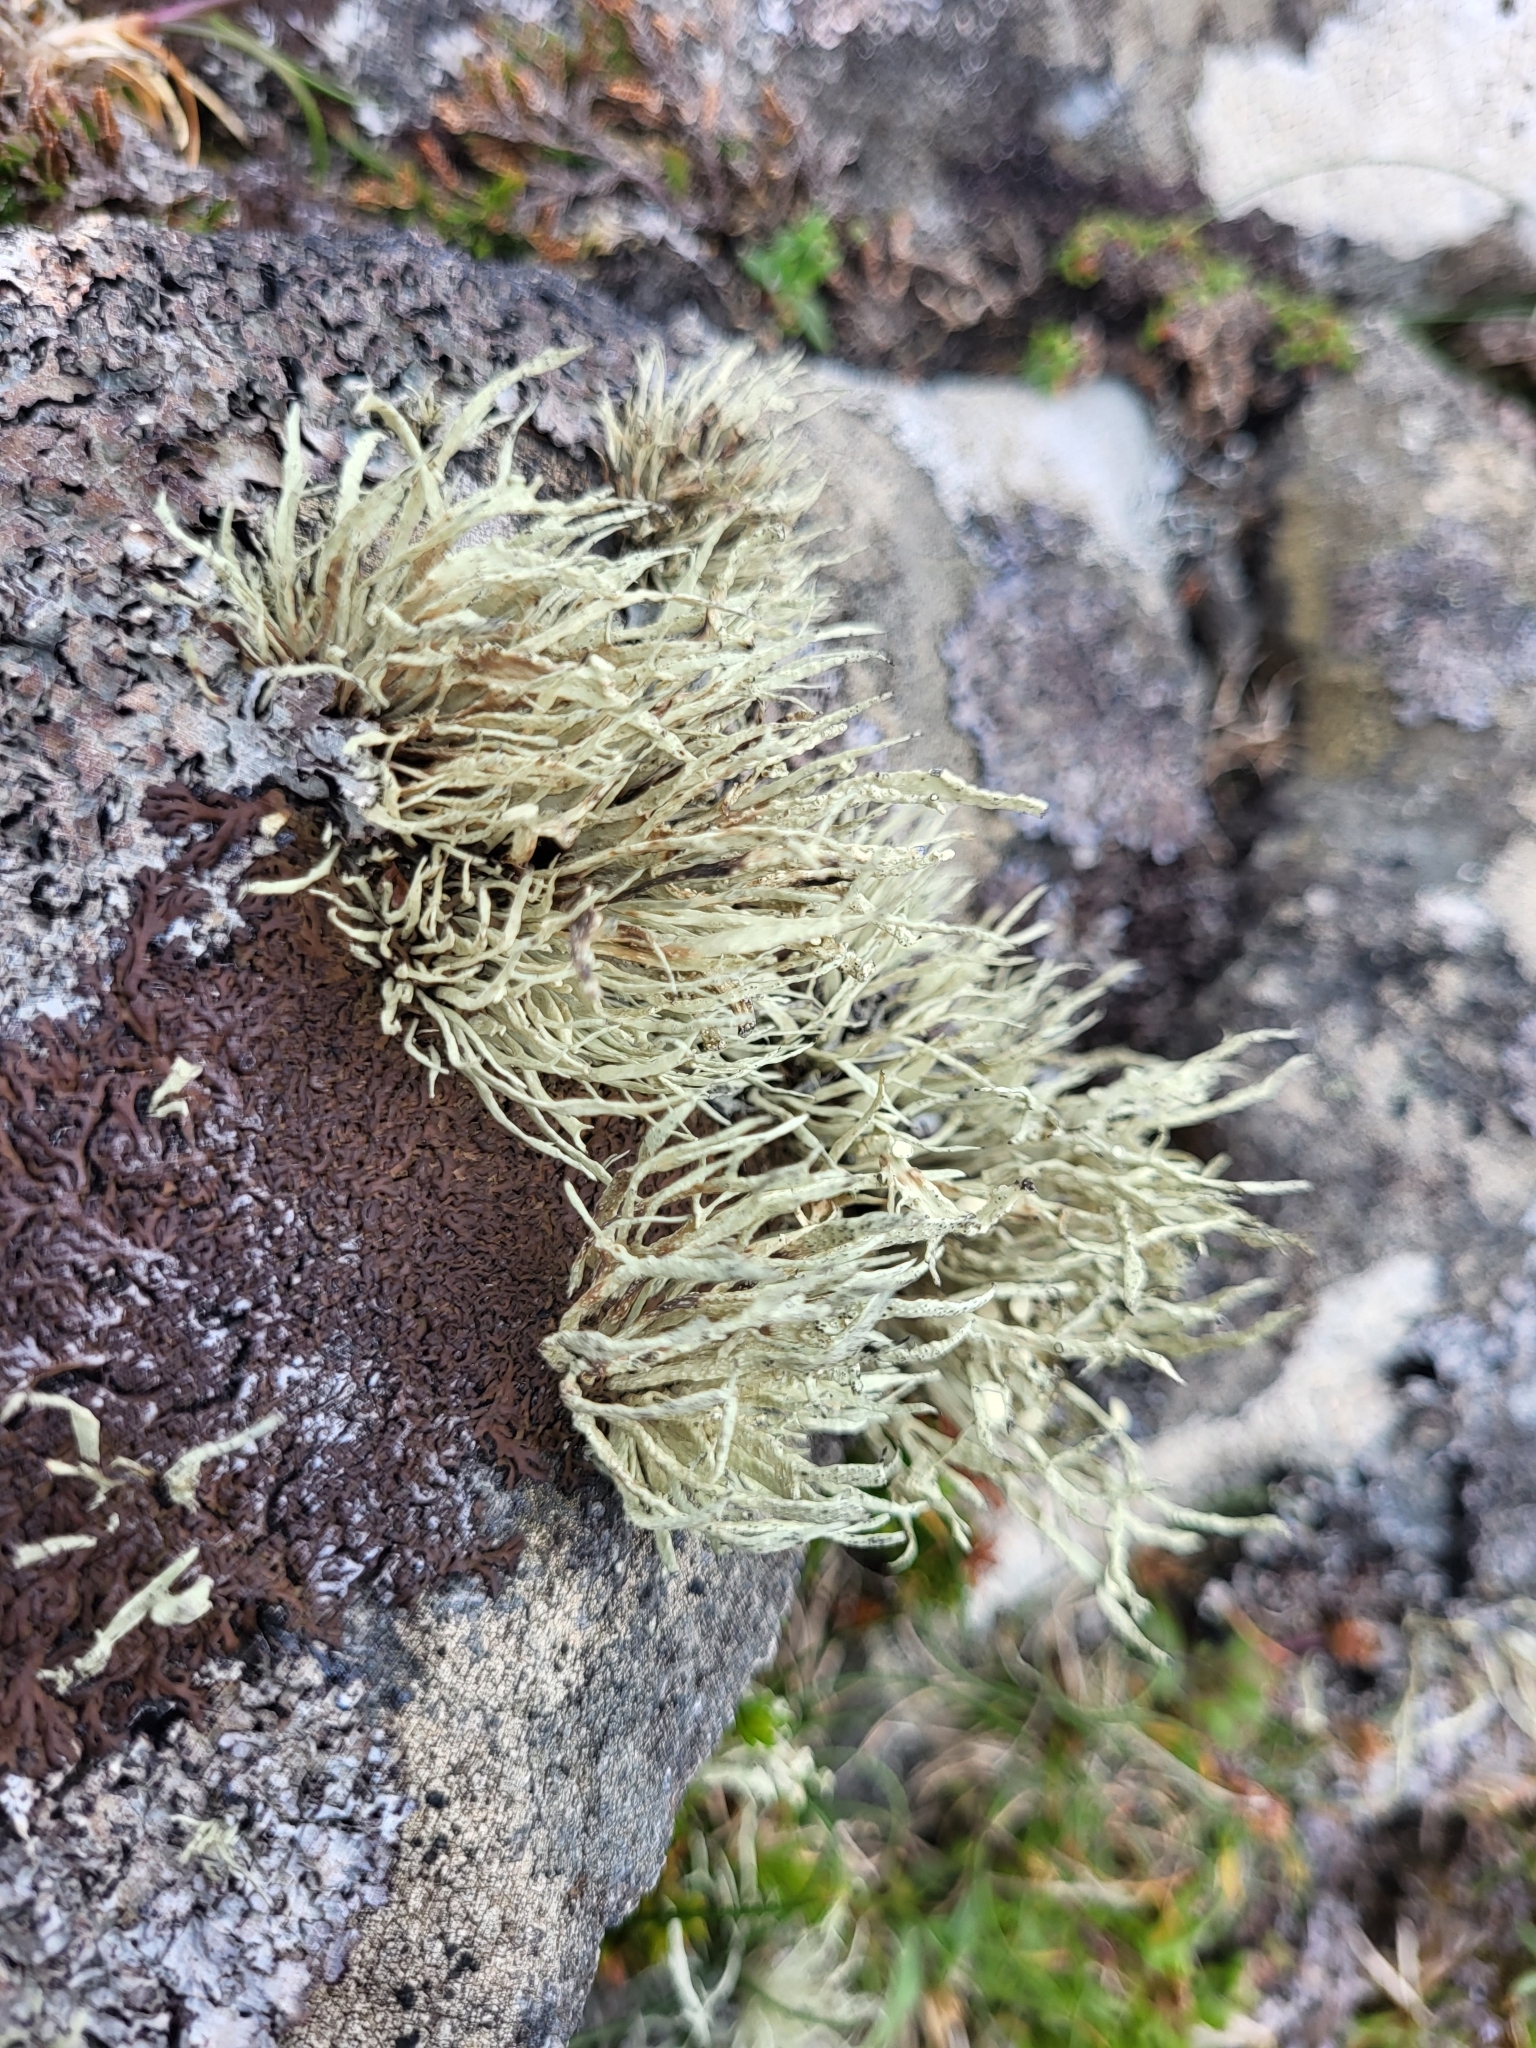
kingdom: Fungi
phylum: Ascomycota
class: Lecanoromycetes
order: Lecanorales
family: Ramalinaceae
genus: Ramalina
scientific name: Ramalina cuspidata
